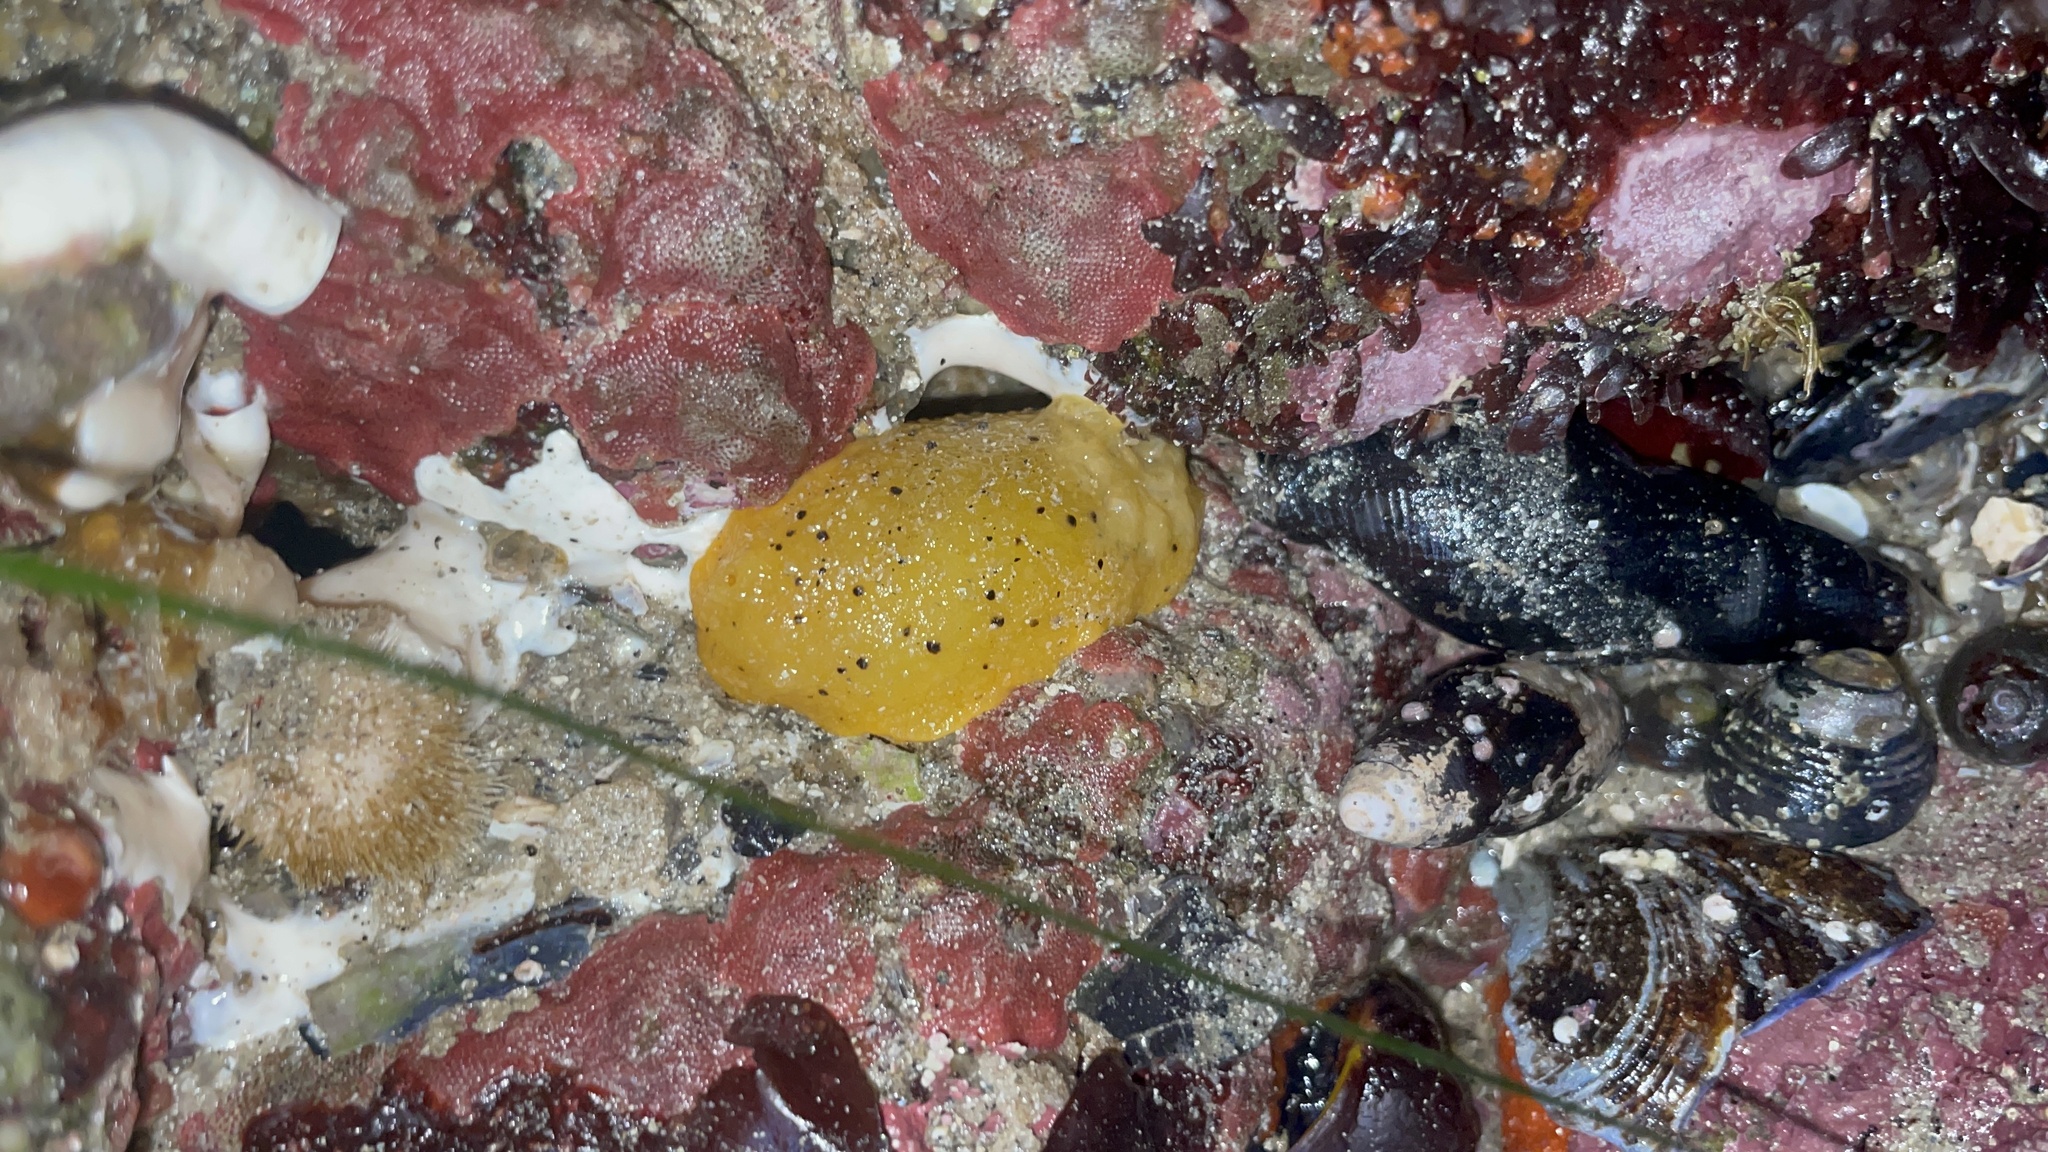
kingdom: Animalia
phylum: Mollusca
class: Gastropoda
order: Nudibranchia
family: Dorididae
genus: Doris
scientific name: Doris montereyensis
